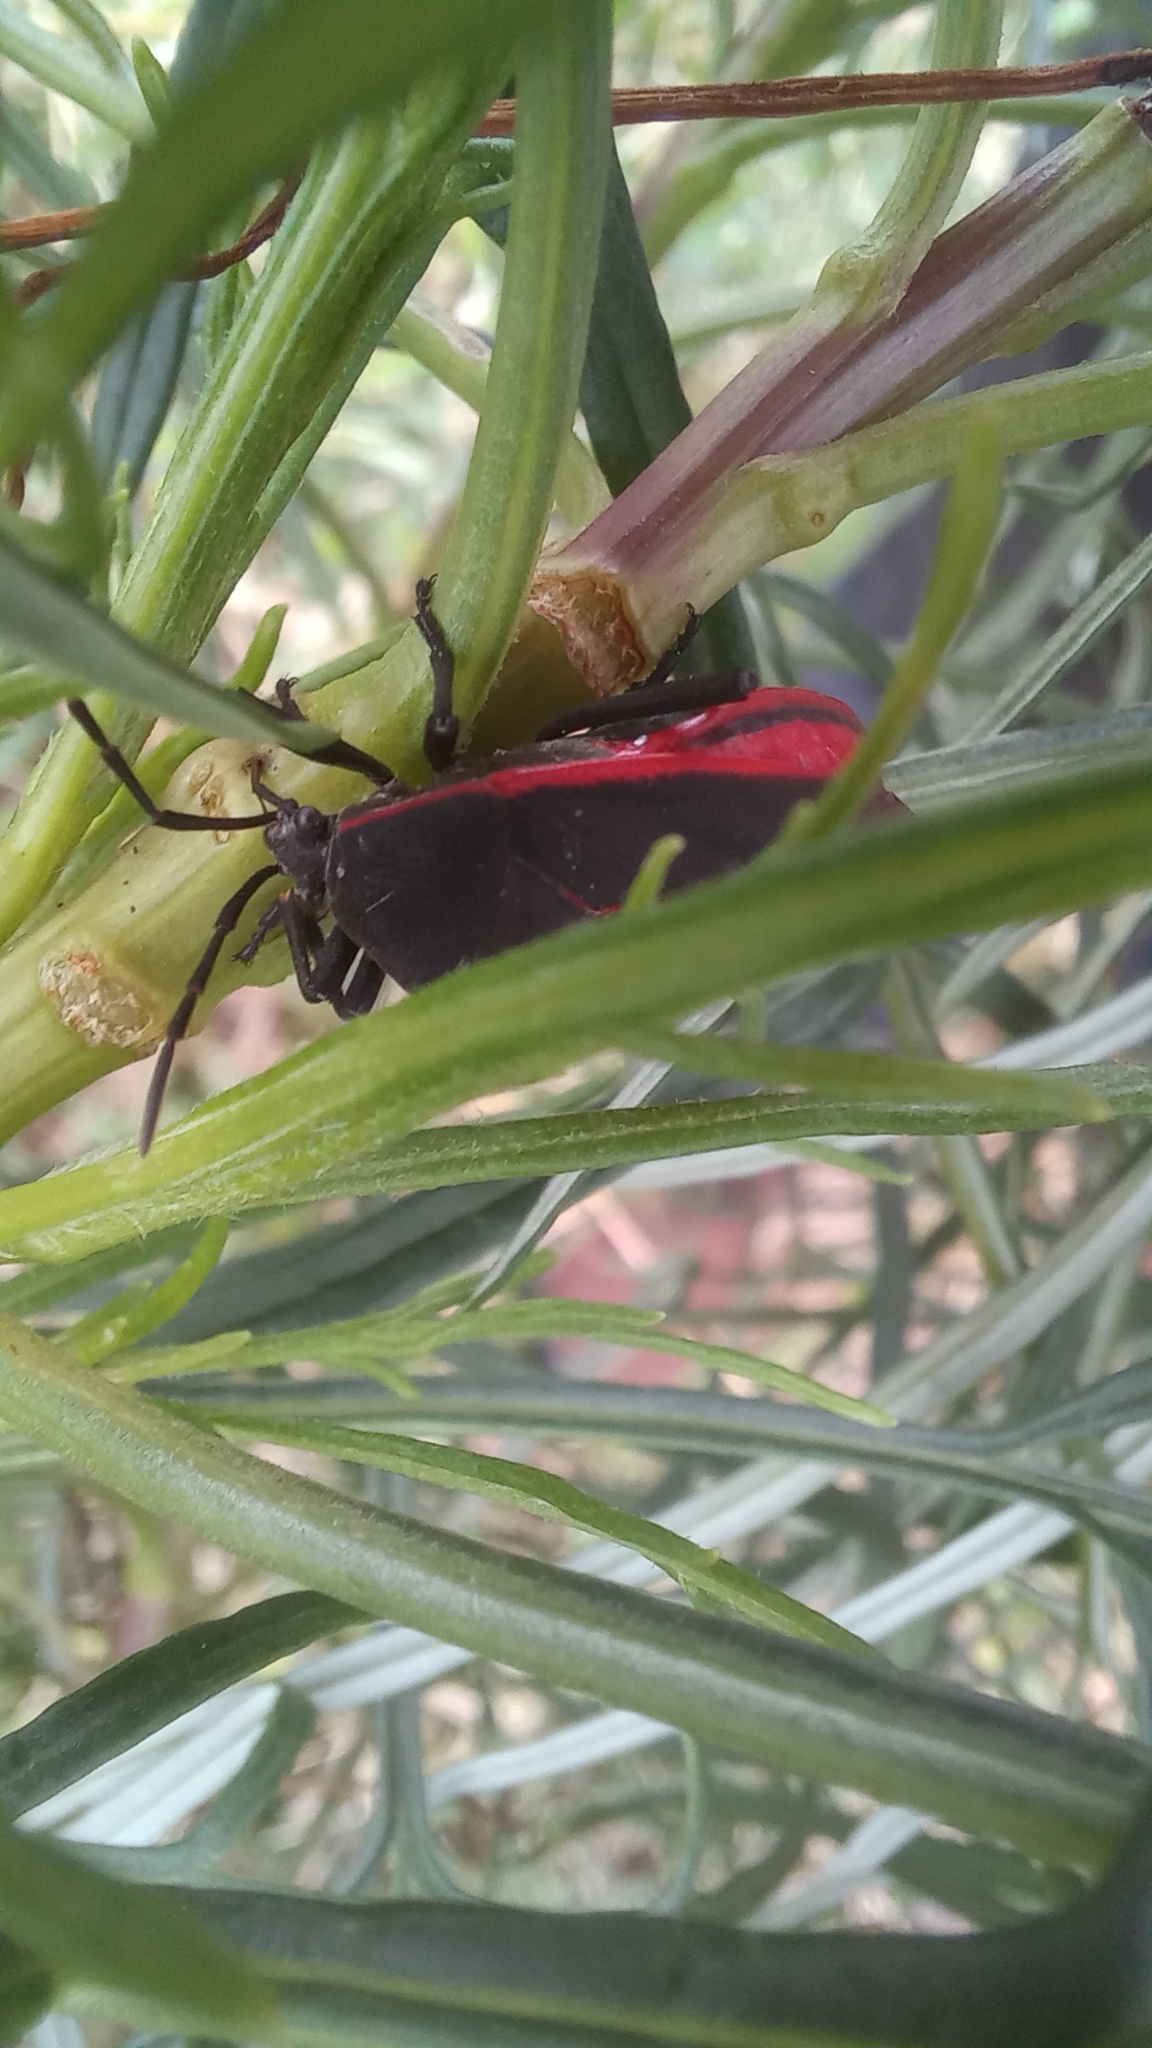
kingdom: Animalia
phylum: Arthropoda
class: Insecta
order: Hemiptera
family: Largidae
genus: Largus
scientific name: Largus rufipennis
